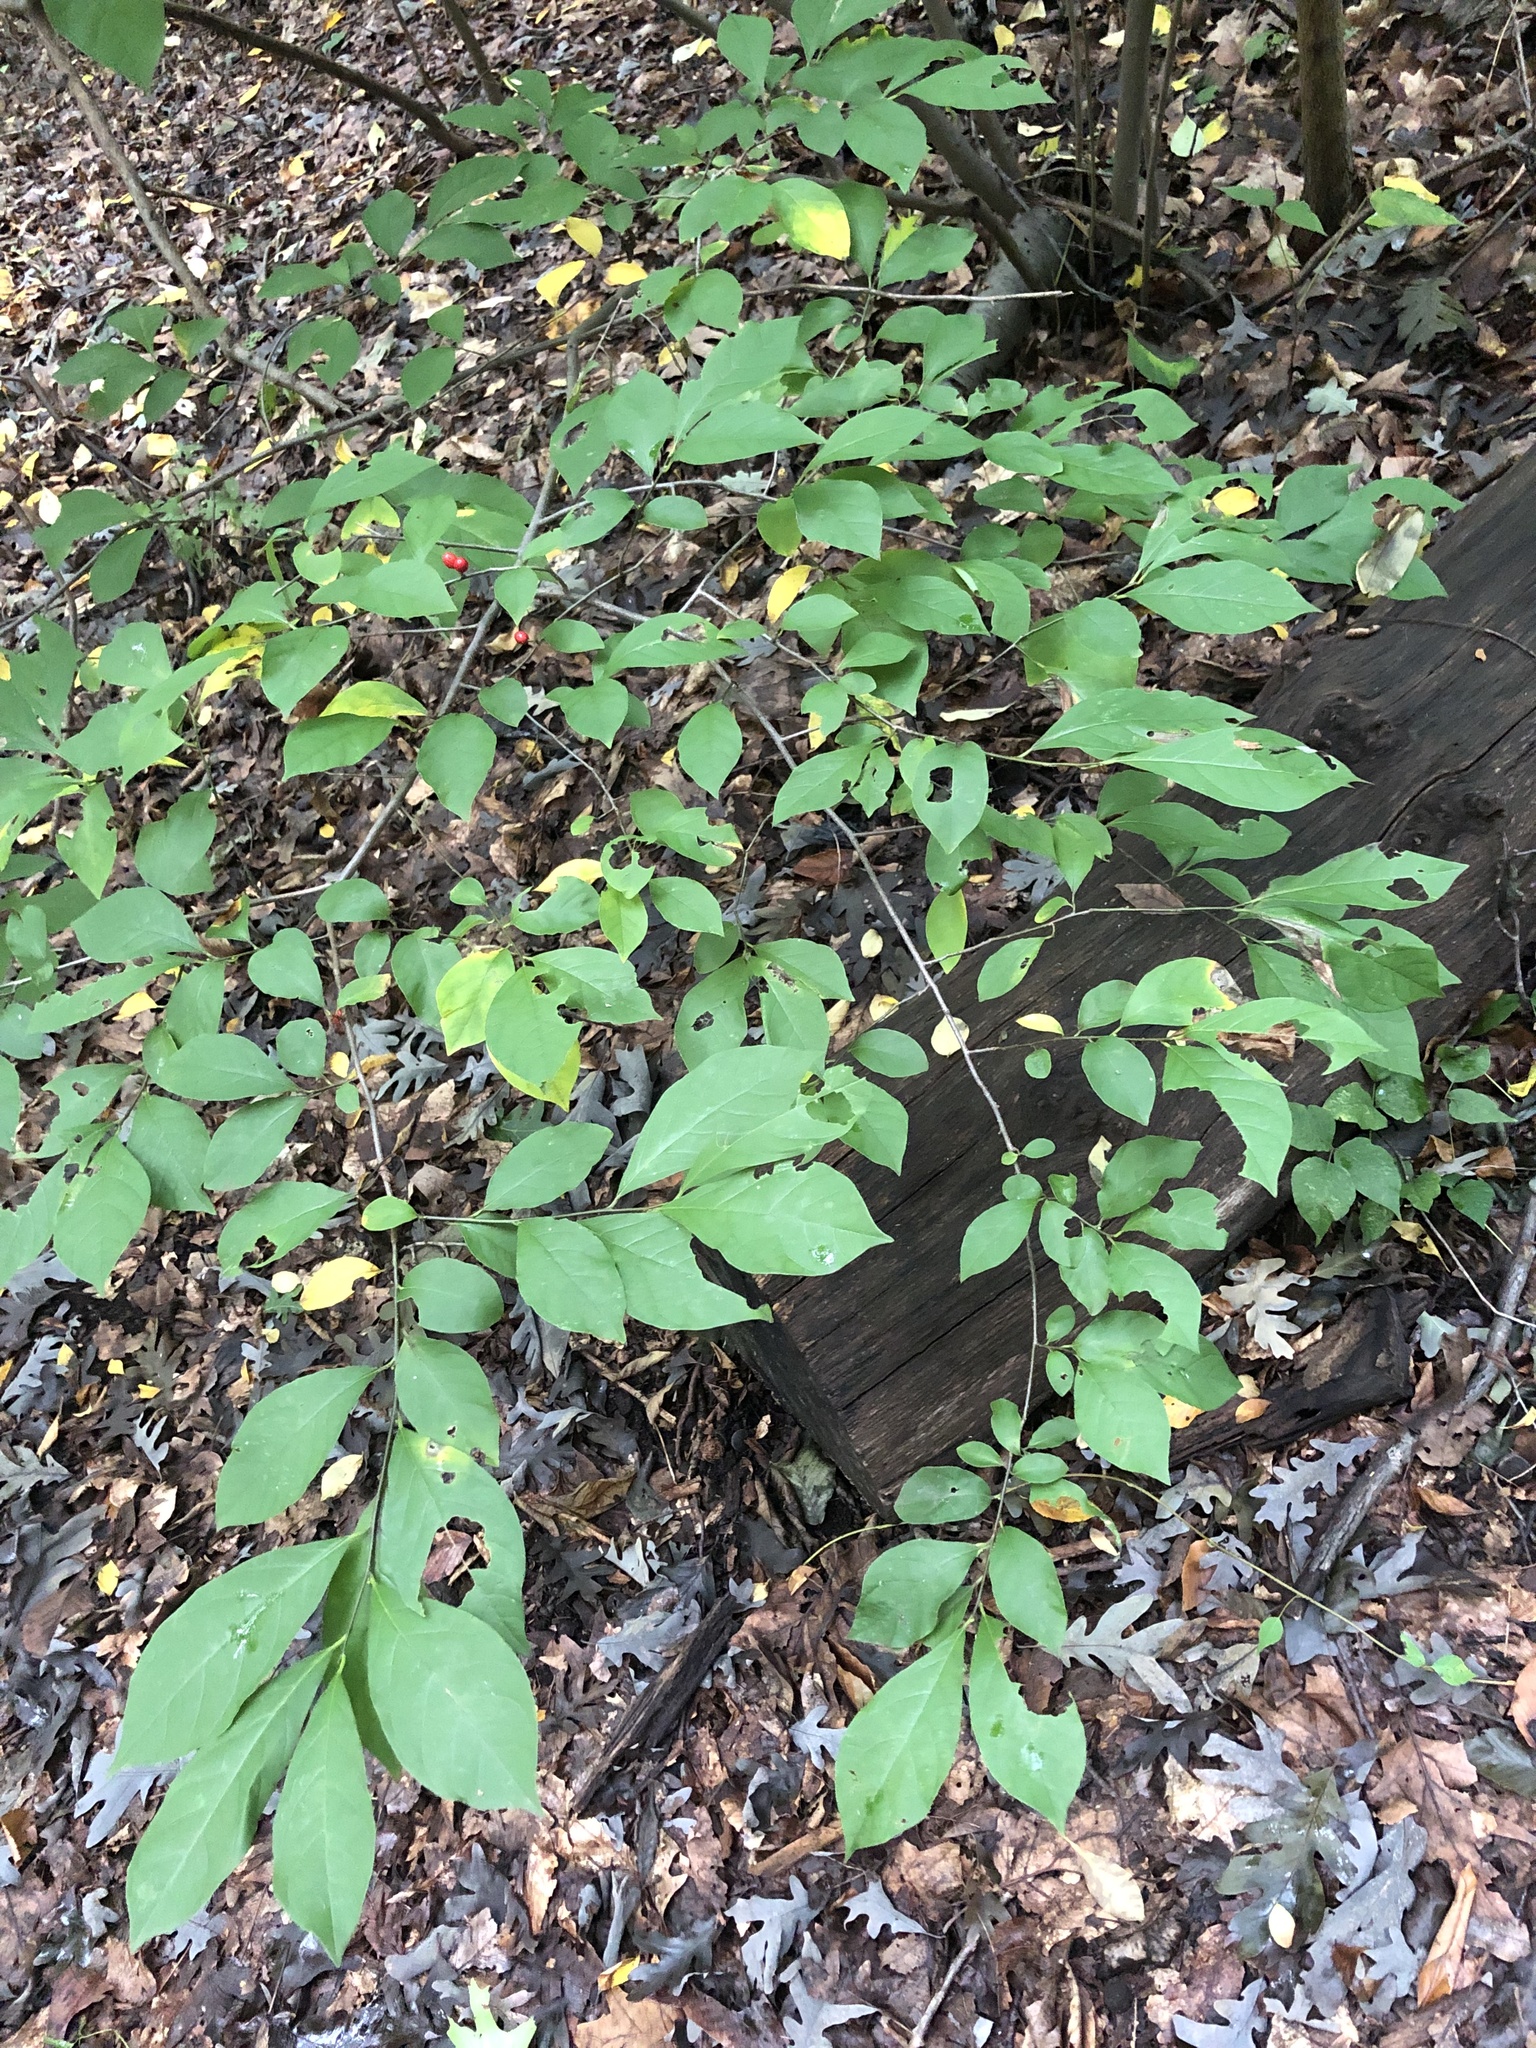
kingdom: Plantae
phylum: Tracheophyta
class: Magnoliopsida
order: Laurales
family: Lauraceae
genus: Lindera
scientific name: Lindera benzoin
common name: Spicebush
